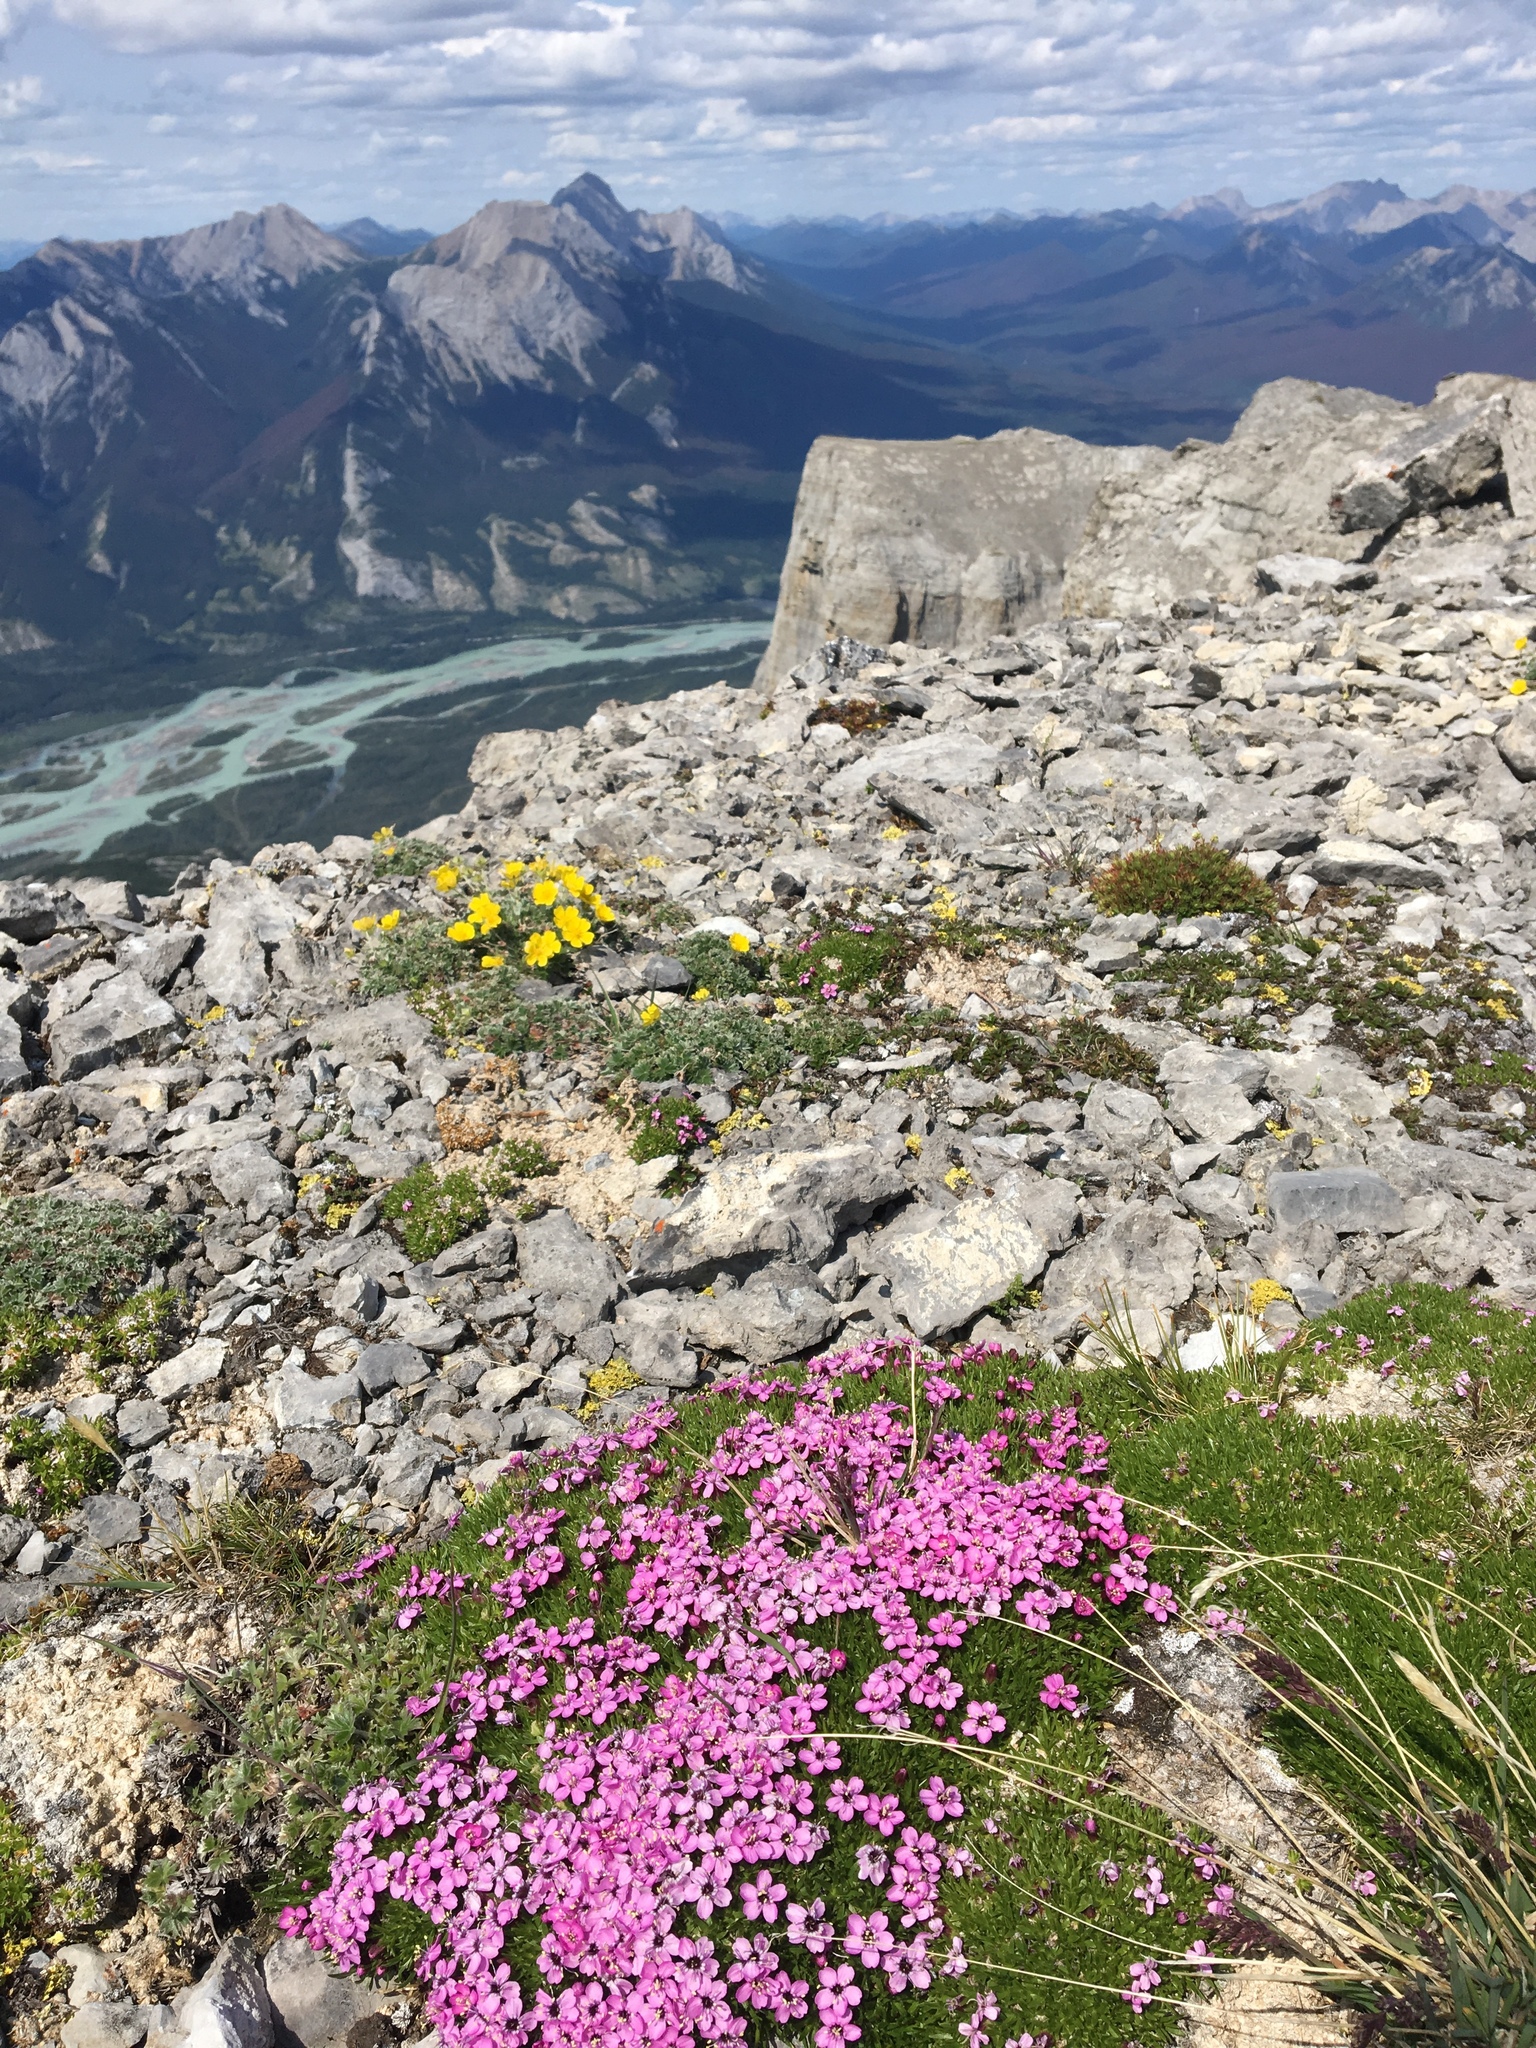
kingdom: Plantae
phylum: Tracheophyta
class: Magnoliopsida
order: Caryophyllales
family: Caryophyllaceae
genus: Silene
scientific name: Silene acaulis
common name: Moss campion
